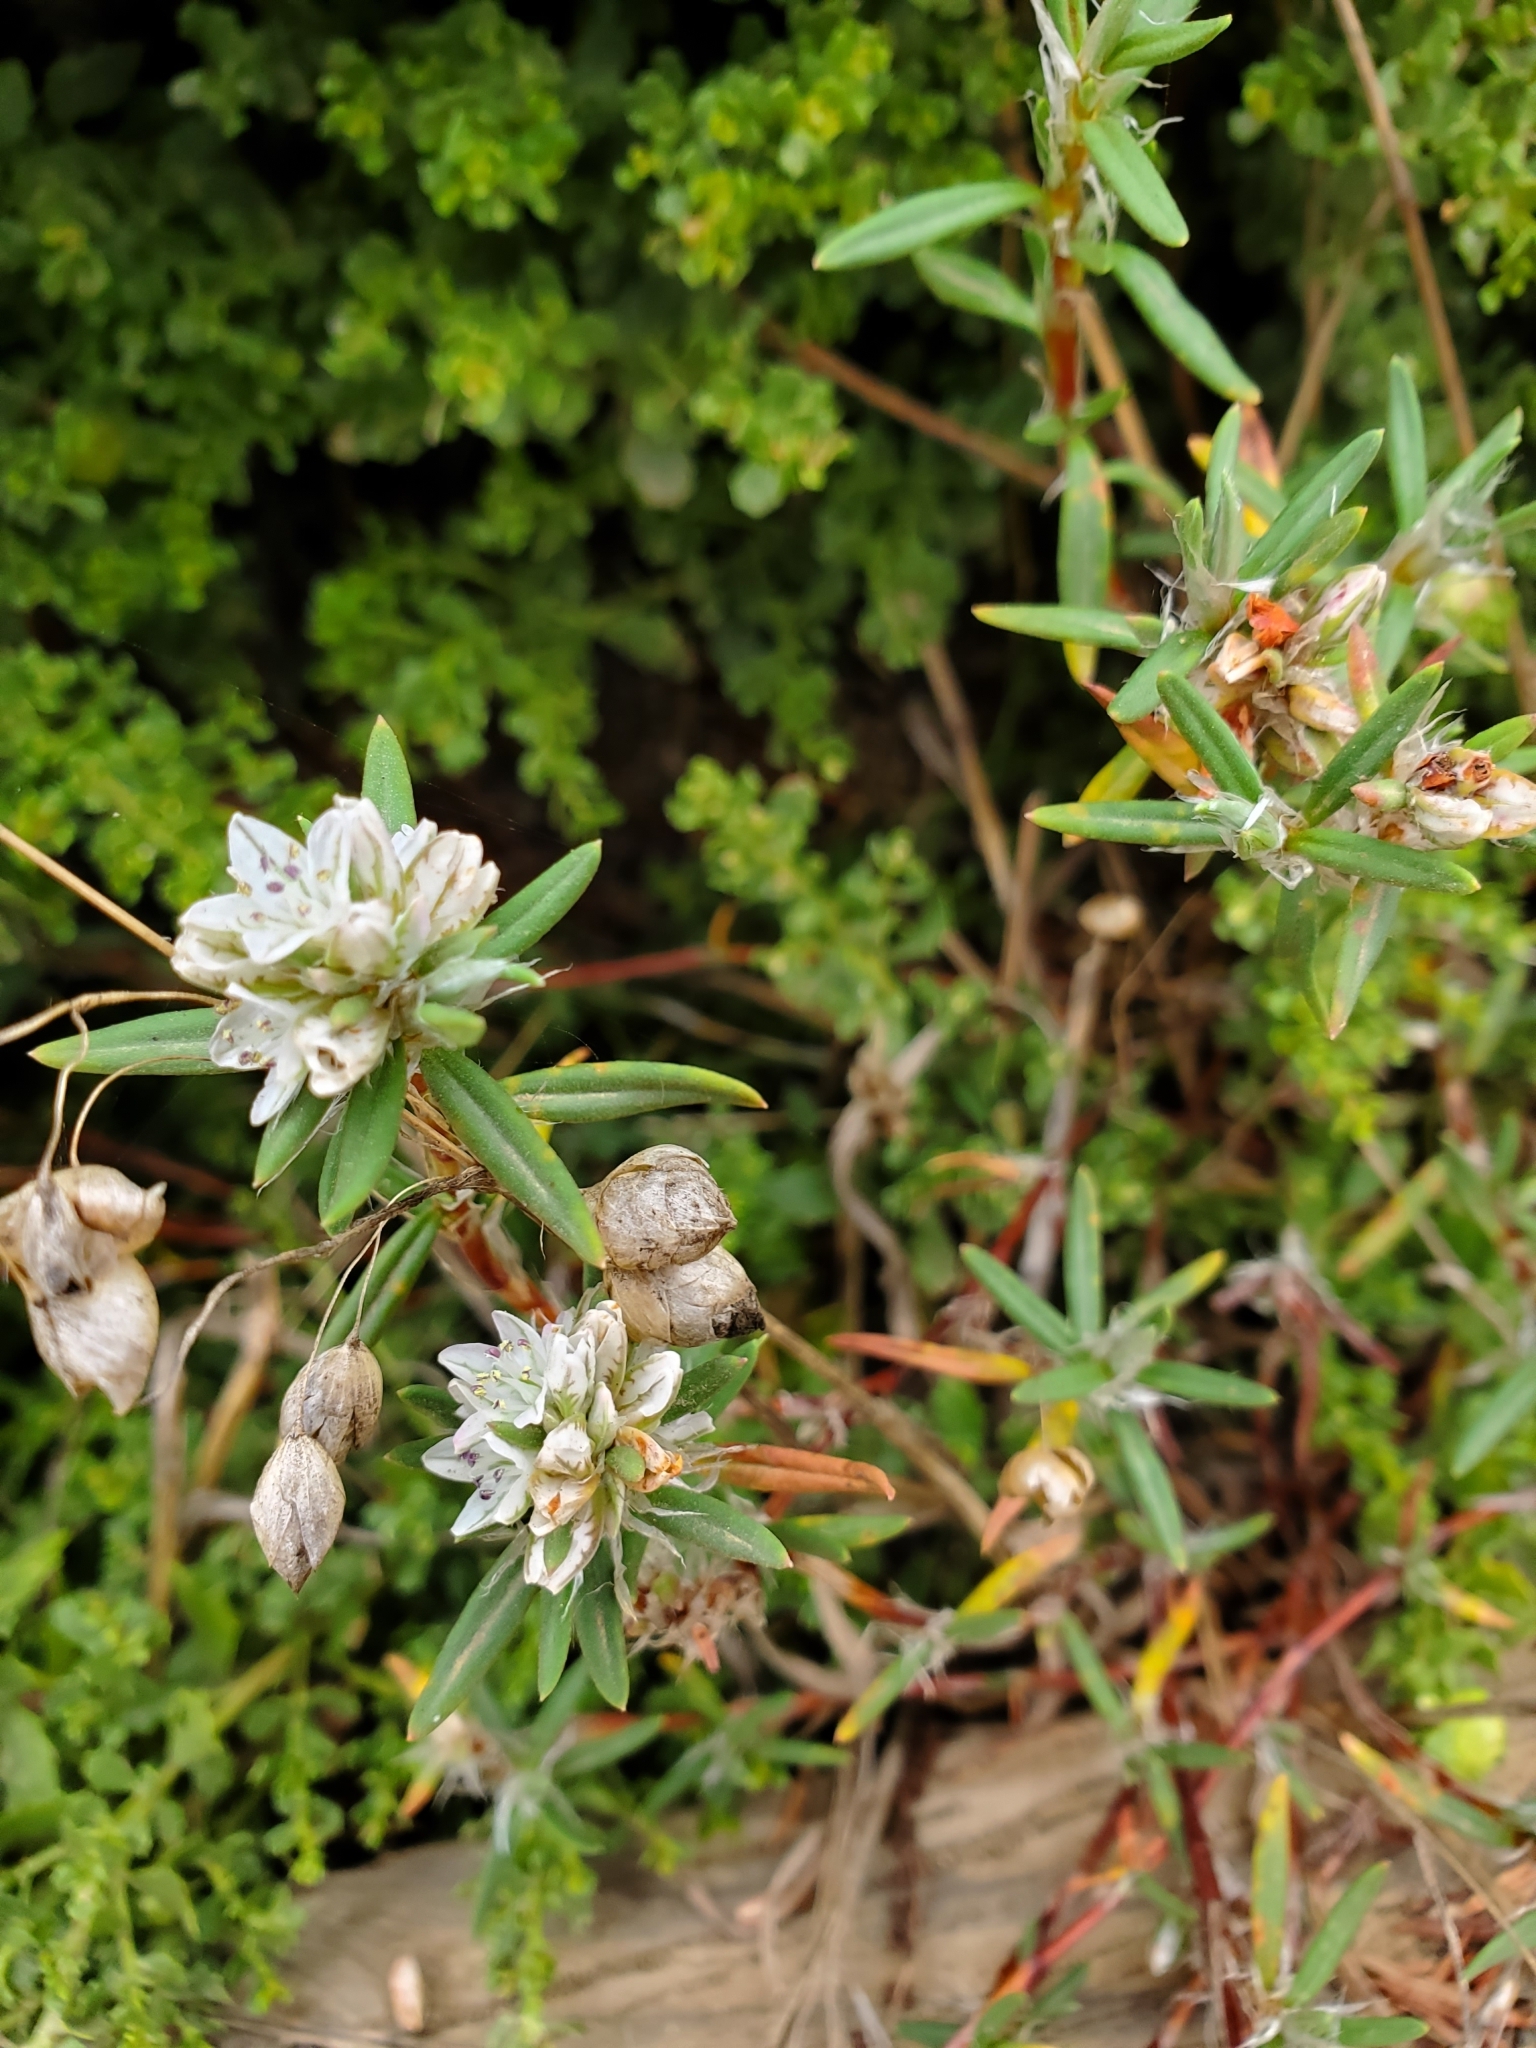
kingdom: Plantae
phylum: Tracheophyta
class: Magnoliopsida
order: Caryophyllales
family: Polygonaceae
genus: Polygonum
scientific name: Polygonum paronychia
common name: Dune knotweed
